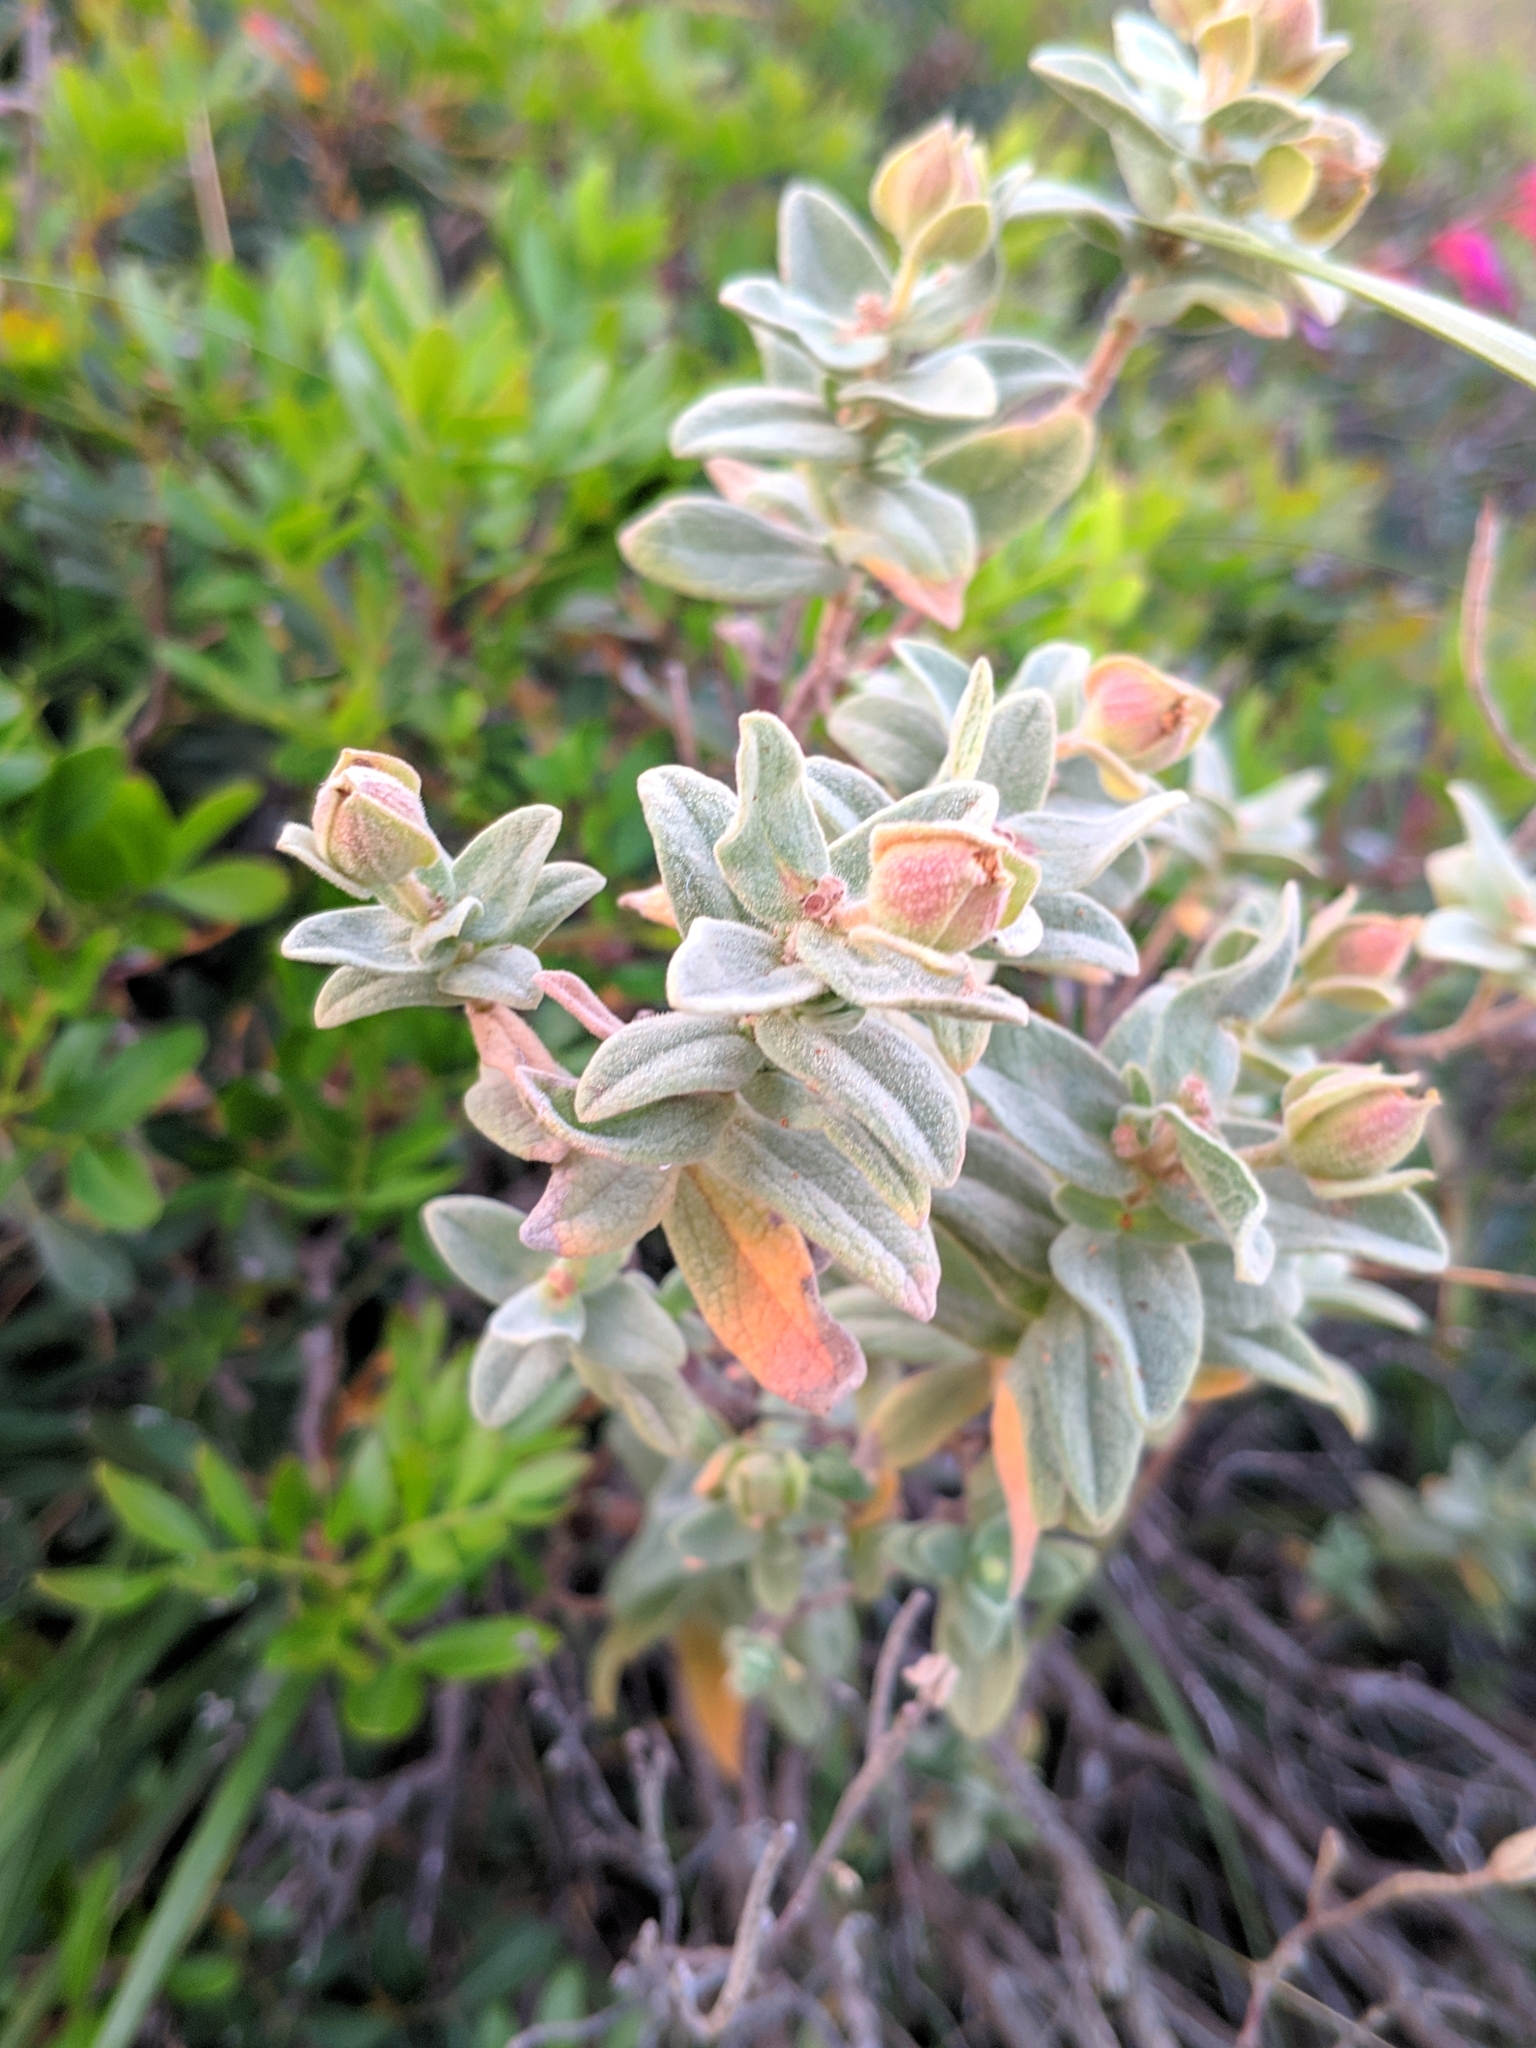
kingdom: Plantae
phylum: Tracheophyta
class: Magnoliopsida
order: Malvales
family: Cistaceae
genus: Cistus
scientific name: Cistus albidus
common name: White-leaf rock-rose
